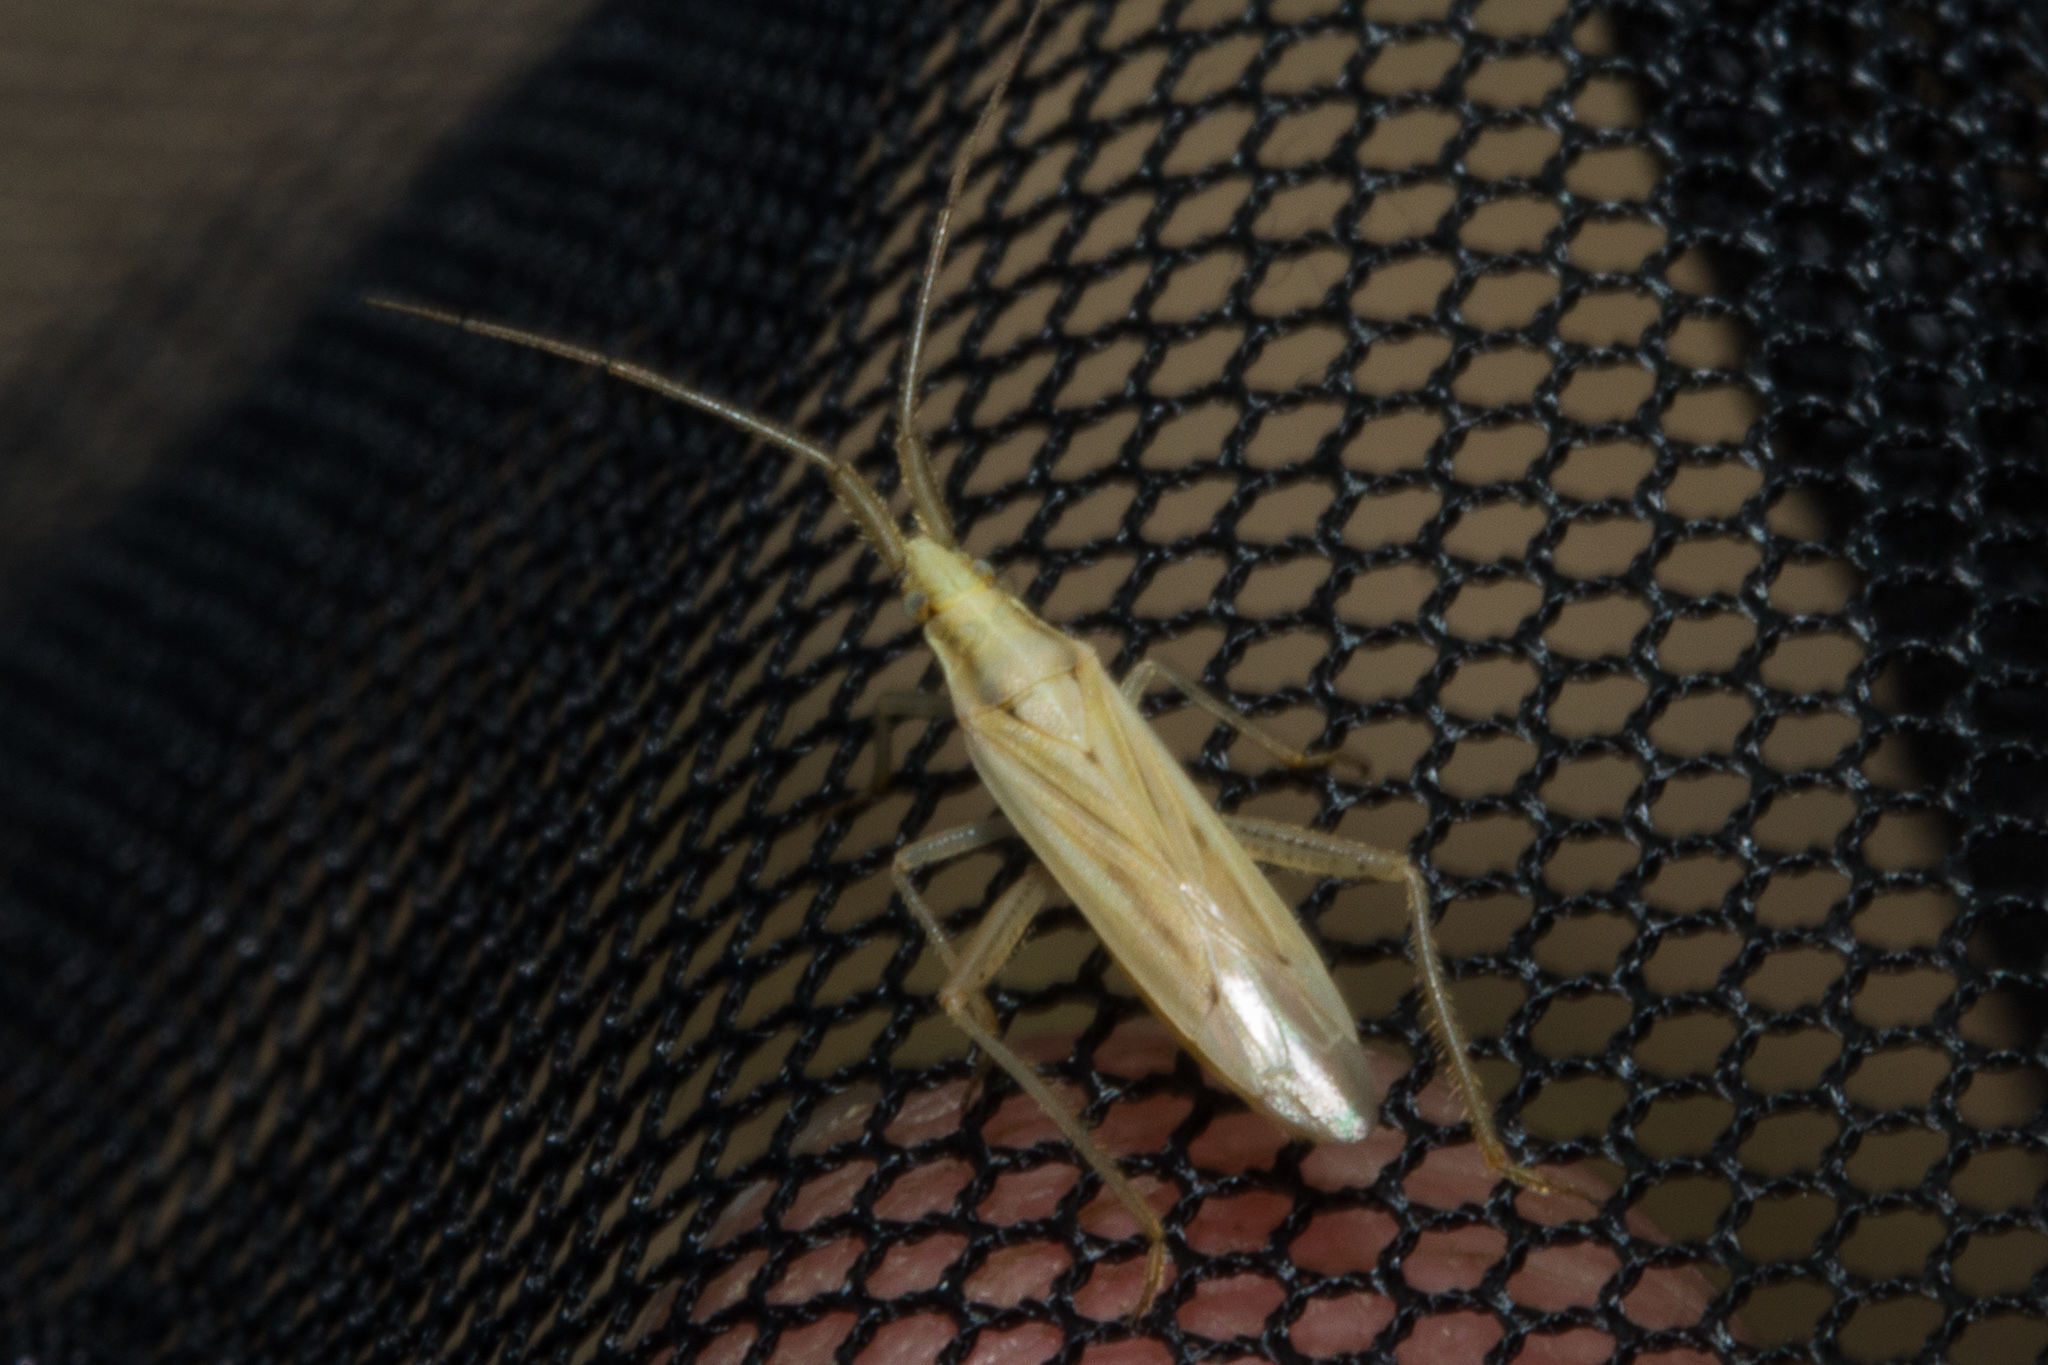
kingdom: Animalia
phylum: Arthropoda
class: Insecta
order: Hemiptera
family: Miridae
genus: Stenodema
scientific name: Stenodema laevigata
